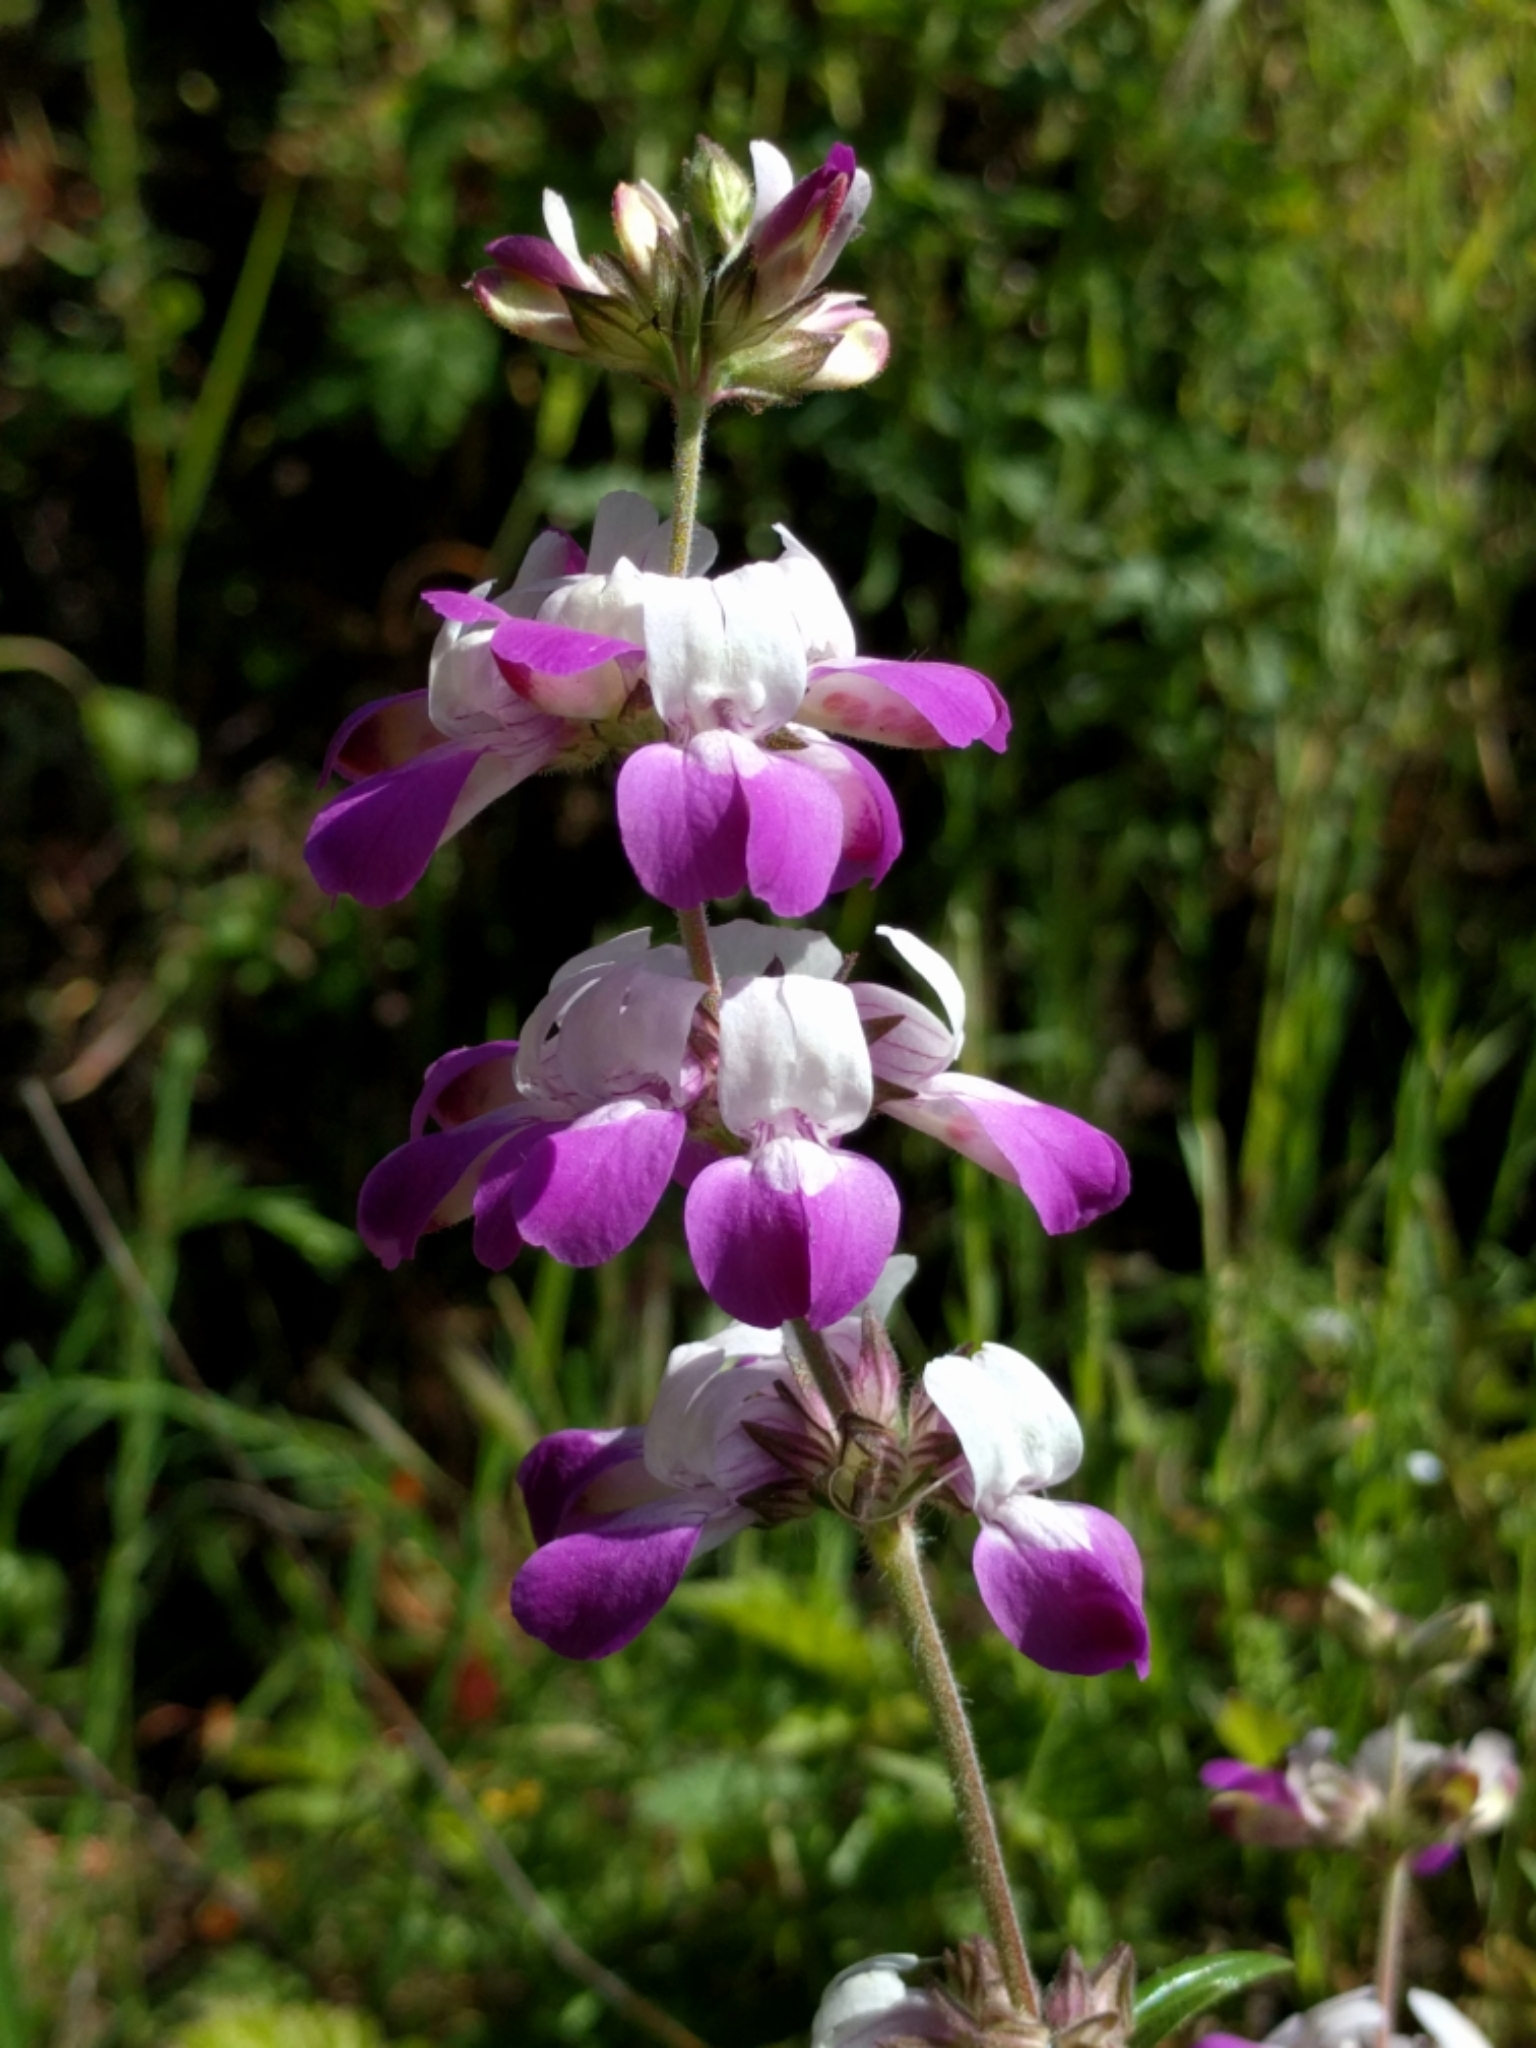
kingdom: Plantae
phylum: Tracheophyta
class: Magnoliopsida
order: Lamiales
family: Plantaginaceae
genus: Collinsia
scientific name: Collinsia heterophylla
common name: Chinese-houses
